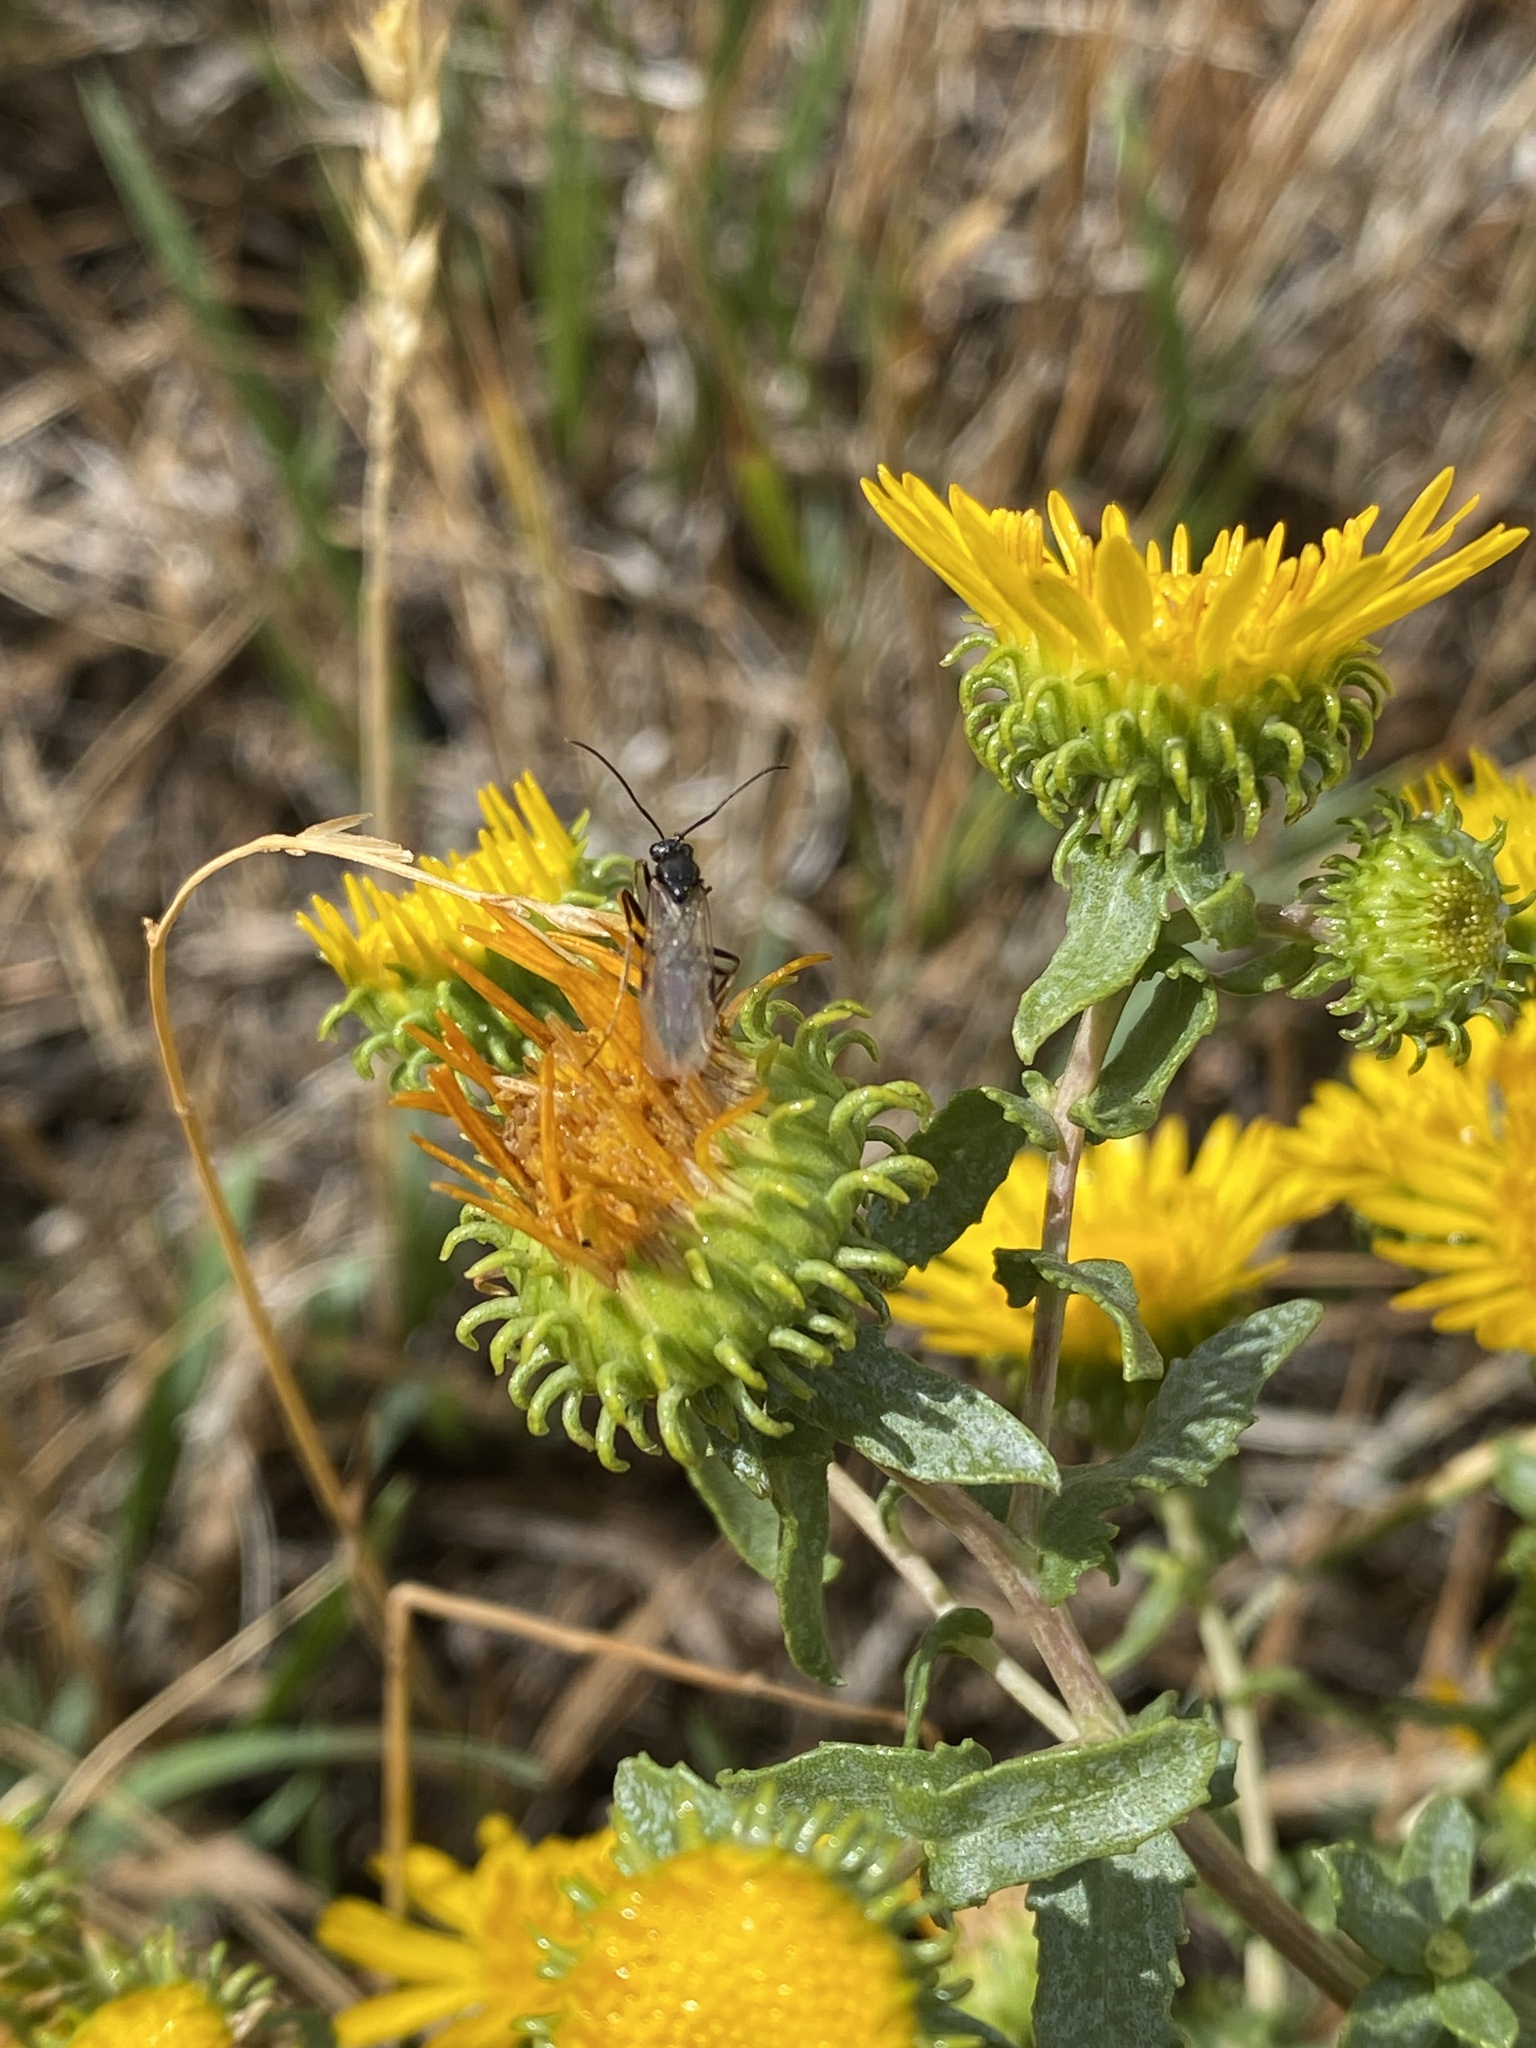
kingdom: Plantae
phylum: Tracheophyta
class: Magnoliopsida
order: Asterales
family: Asteraceae
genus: Grindelia
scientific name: Grindelia squarrosa
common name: Curly-cup gumweed
